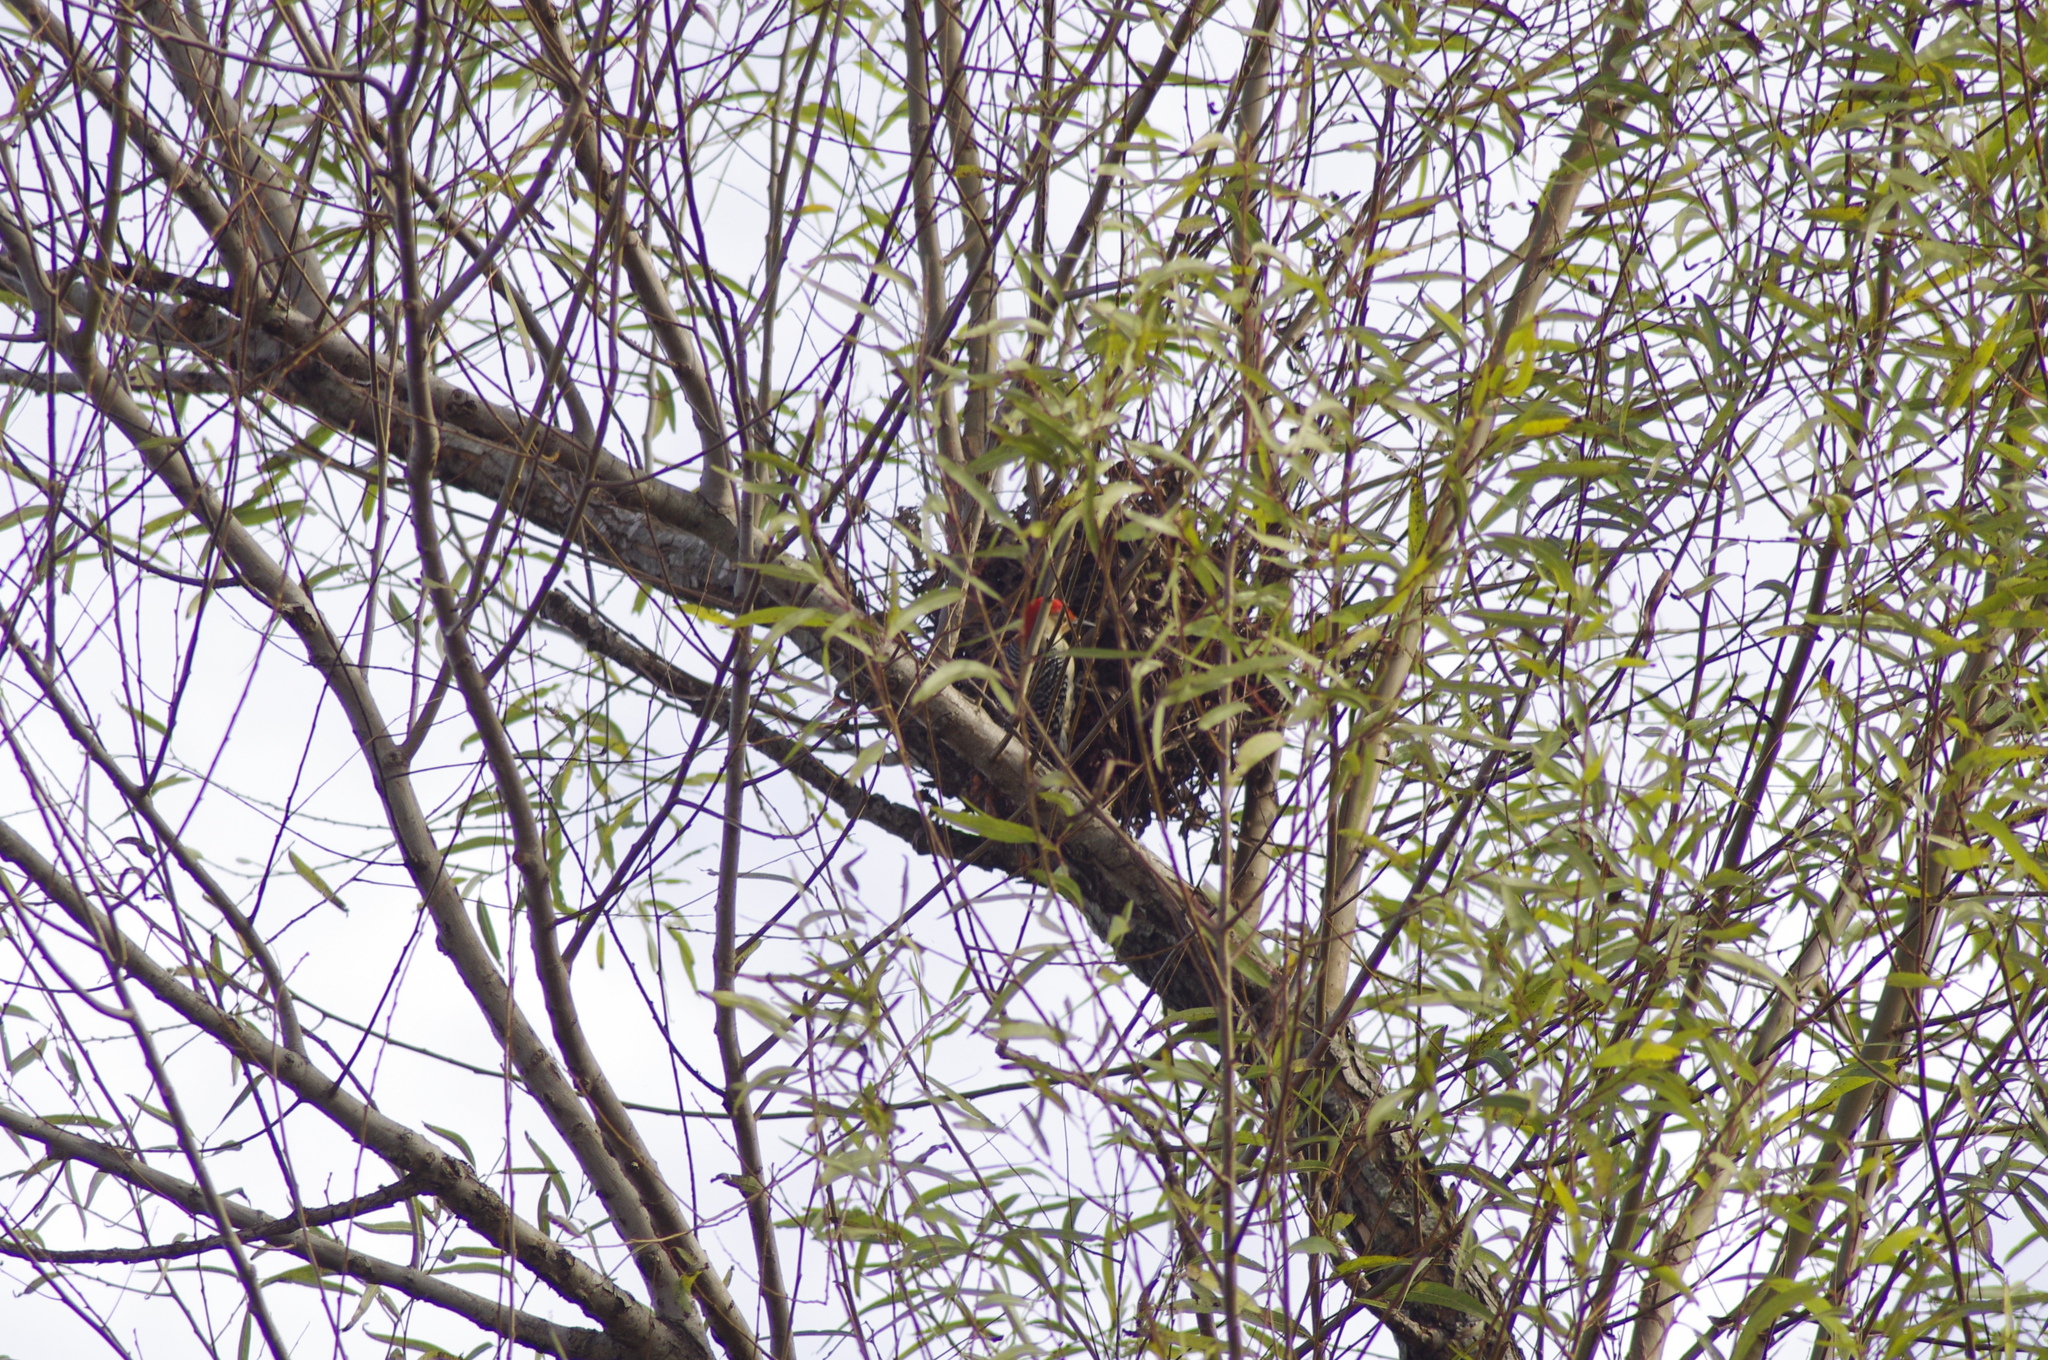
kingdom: Animalia
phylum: Chordata
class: Aves
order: Piciformes
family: Picidae
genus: Melanerpes
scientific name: Melanerpes carolinus
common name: Red-bellied woodpecker
